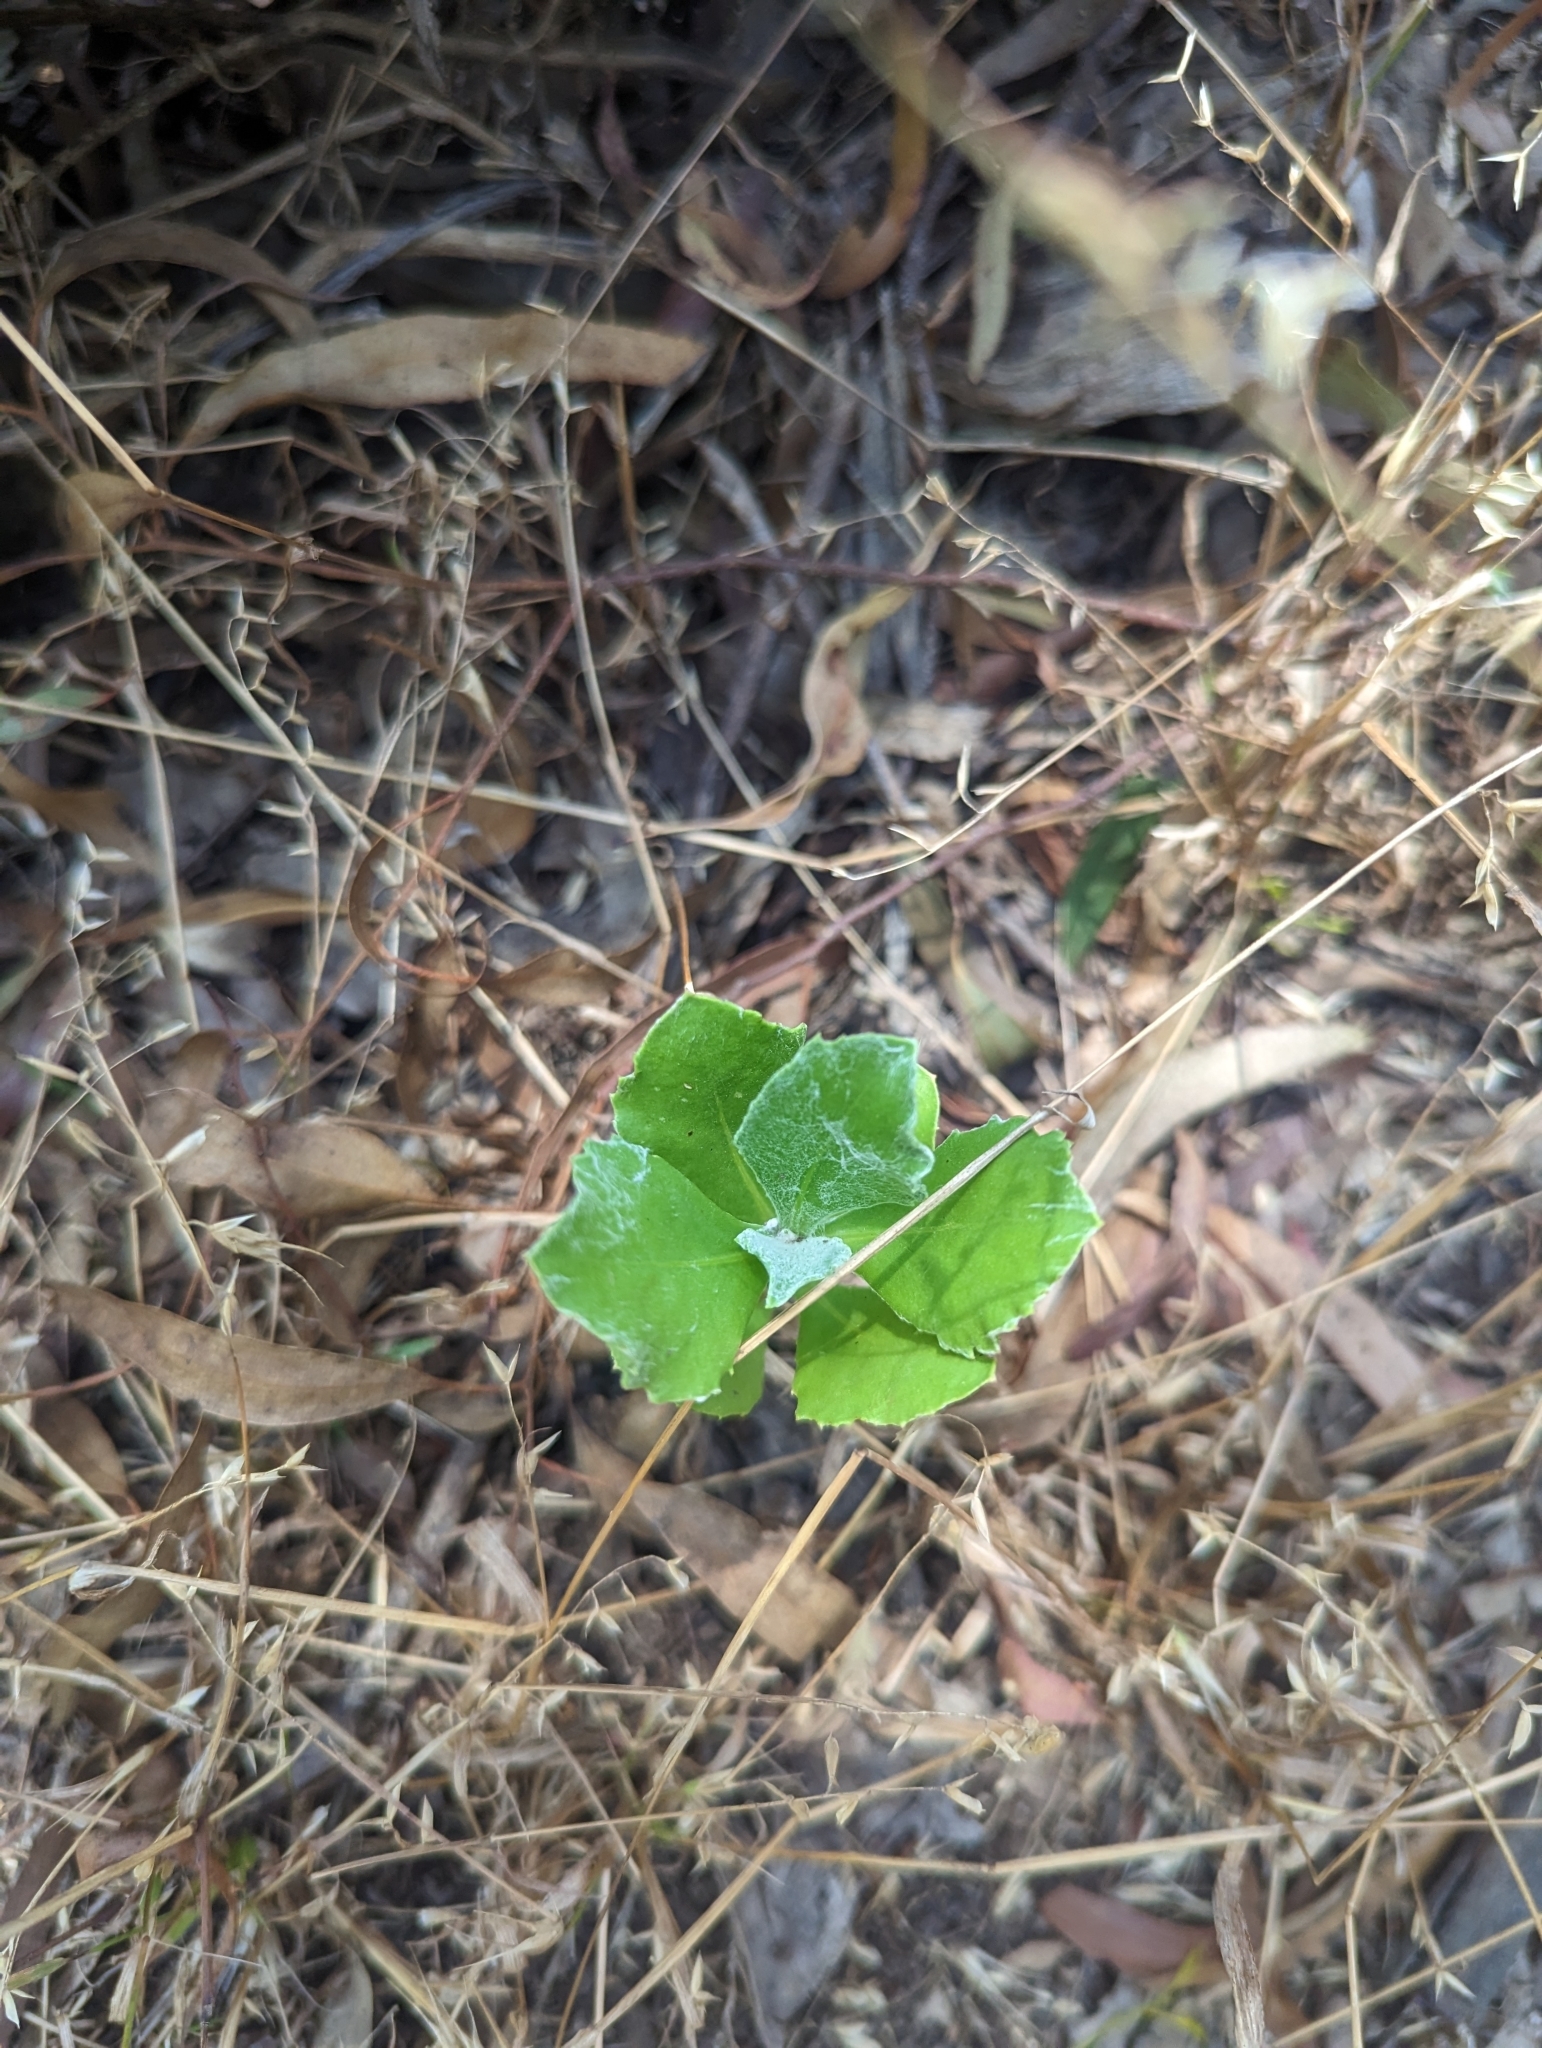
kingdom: Plantae
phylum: Tracheophyta
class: Magnoliopsida
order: Asterales
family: Asteraceae
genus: Osteospermum
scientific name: Osteospermum moniliferum
